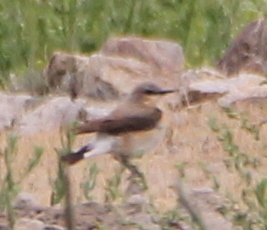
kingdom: Animalia
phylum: Chordata
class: Aves
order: Passeriformes
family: Muscicapidae
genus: Oenanthe
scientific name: Oenanthe oenanthe
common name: Northern wheatear
